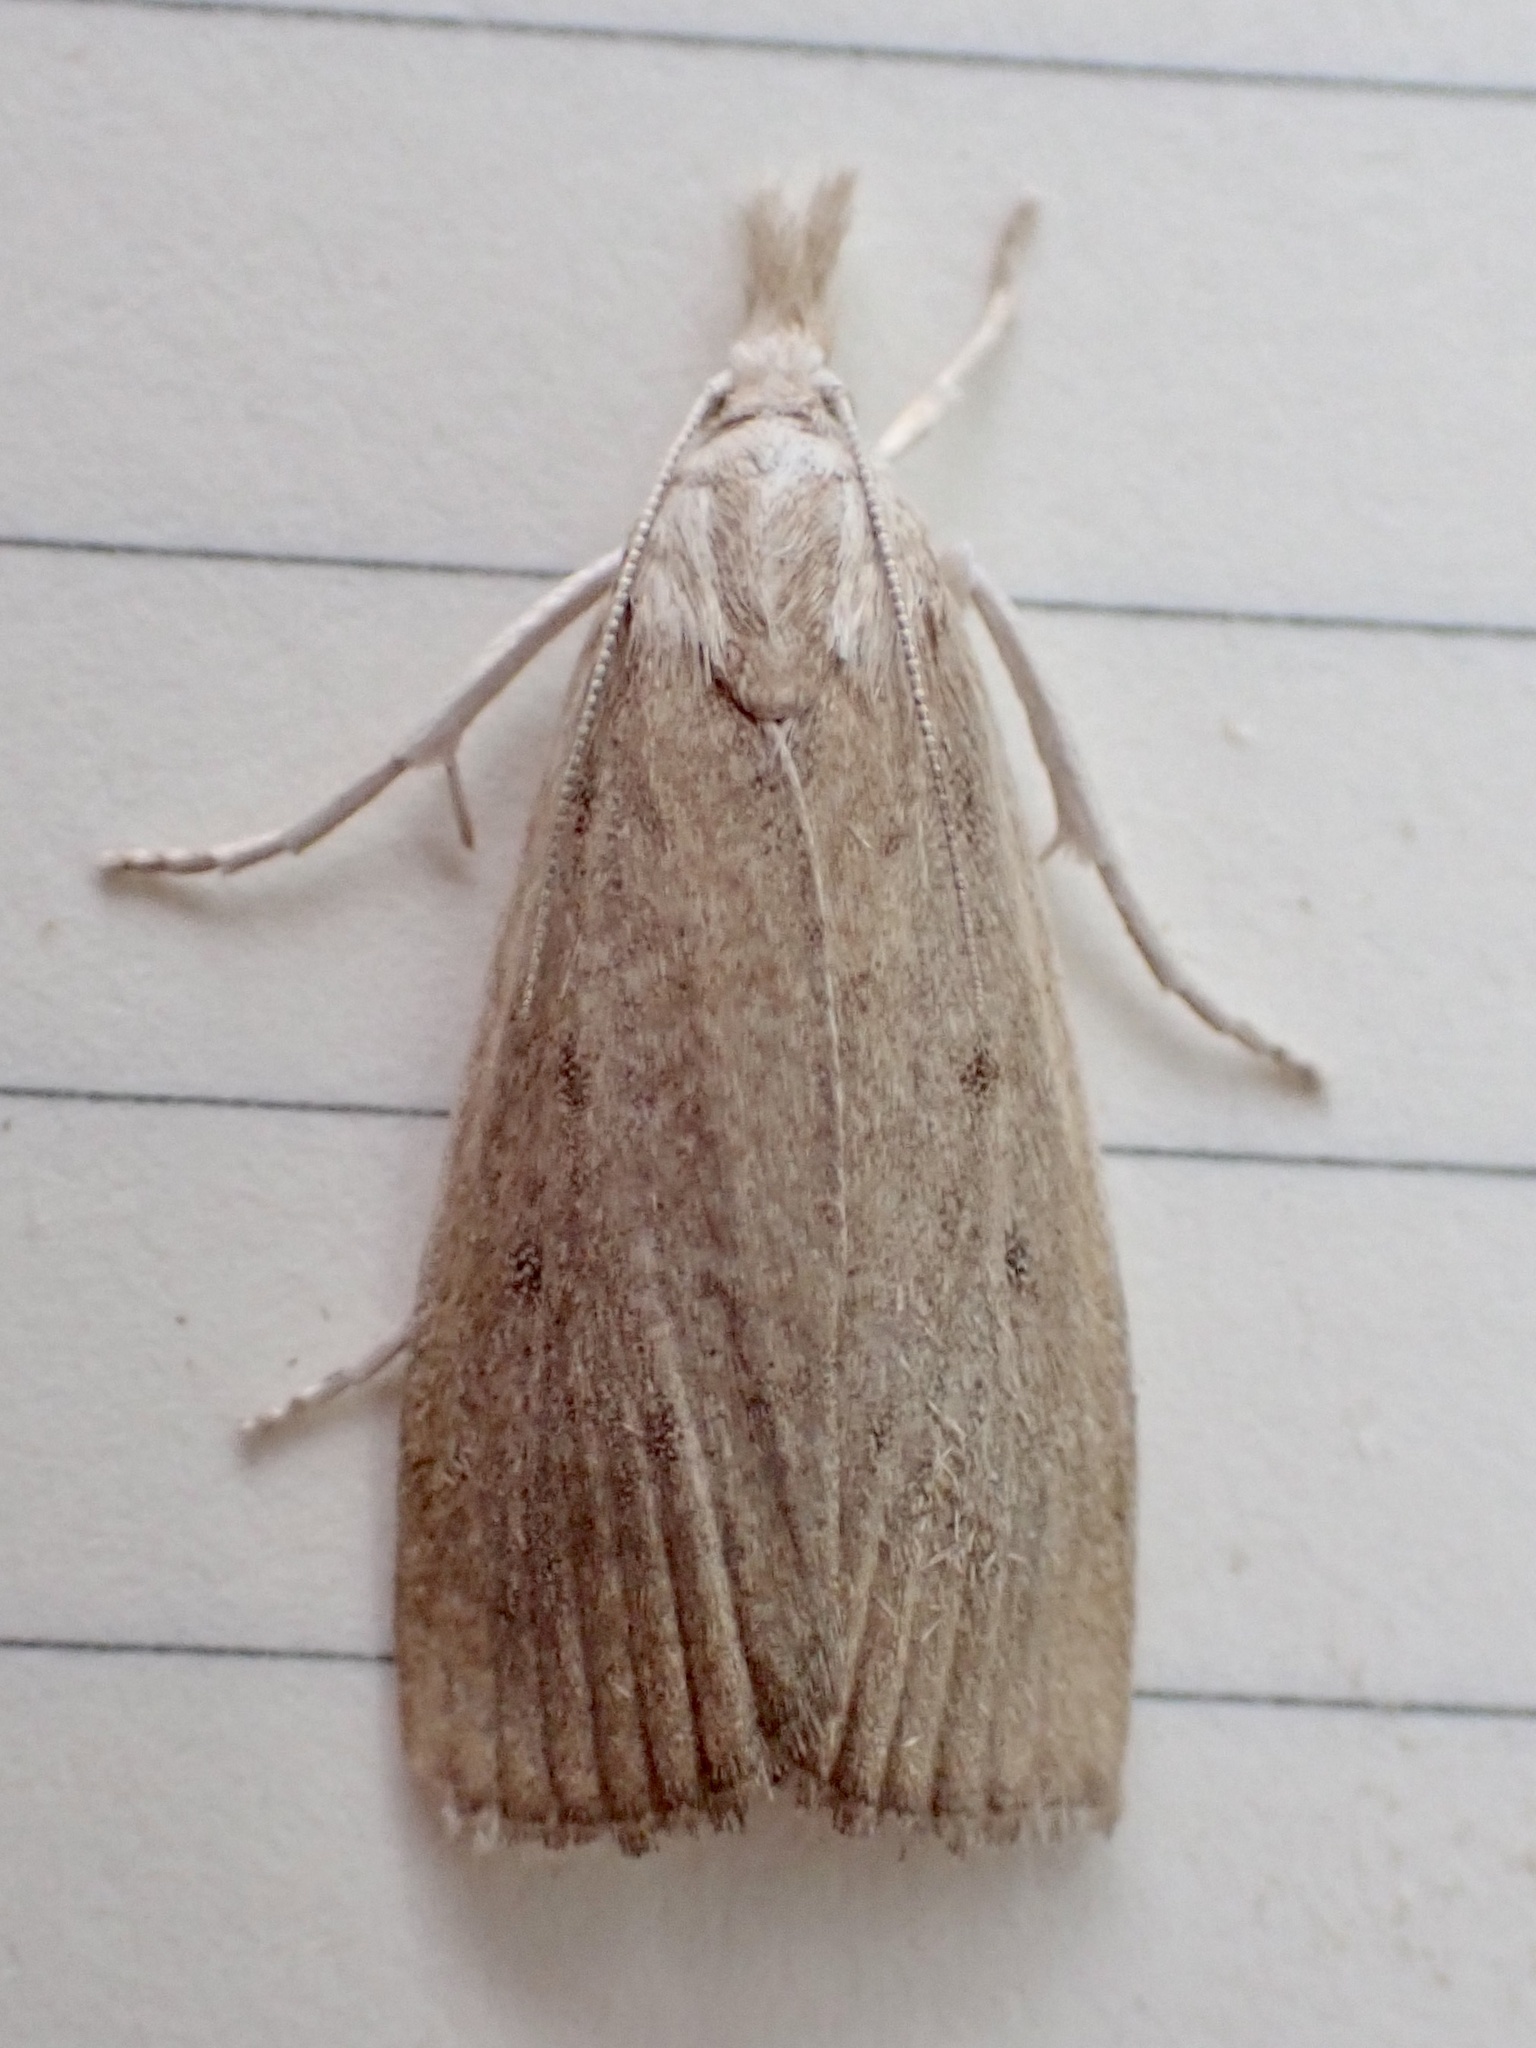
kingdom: Animalia
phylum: Arthropoda
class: Insecta
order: Lepidoptera
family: Crambidae
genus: Calamotropha
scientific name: Calamotropha paludella
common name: Bulrush veneer
